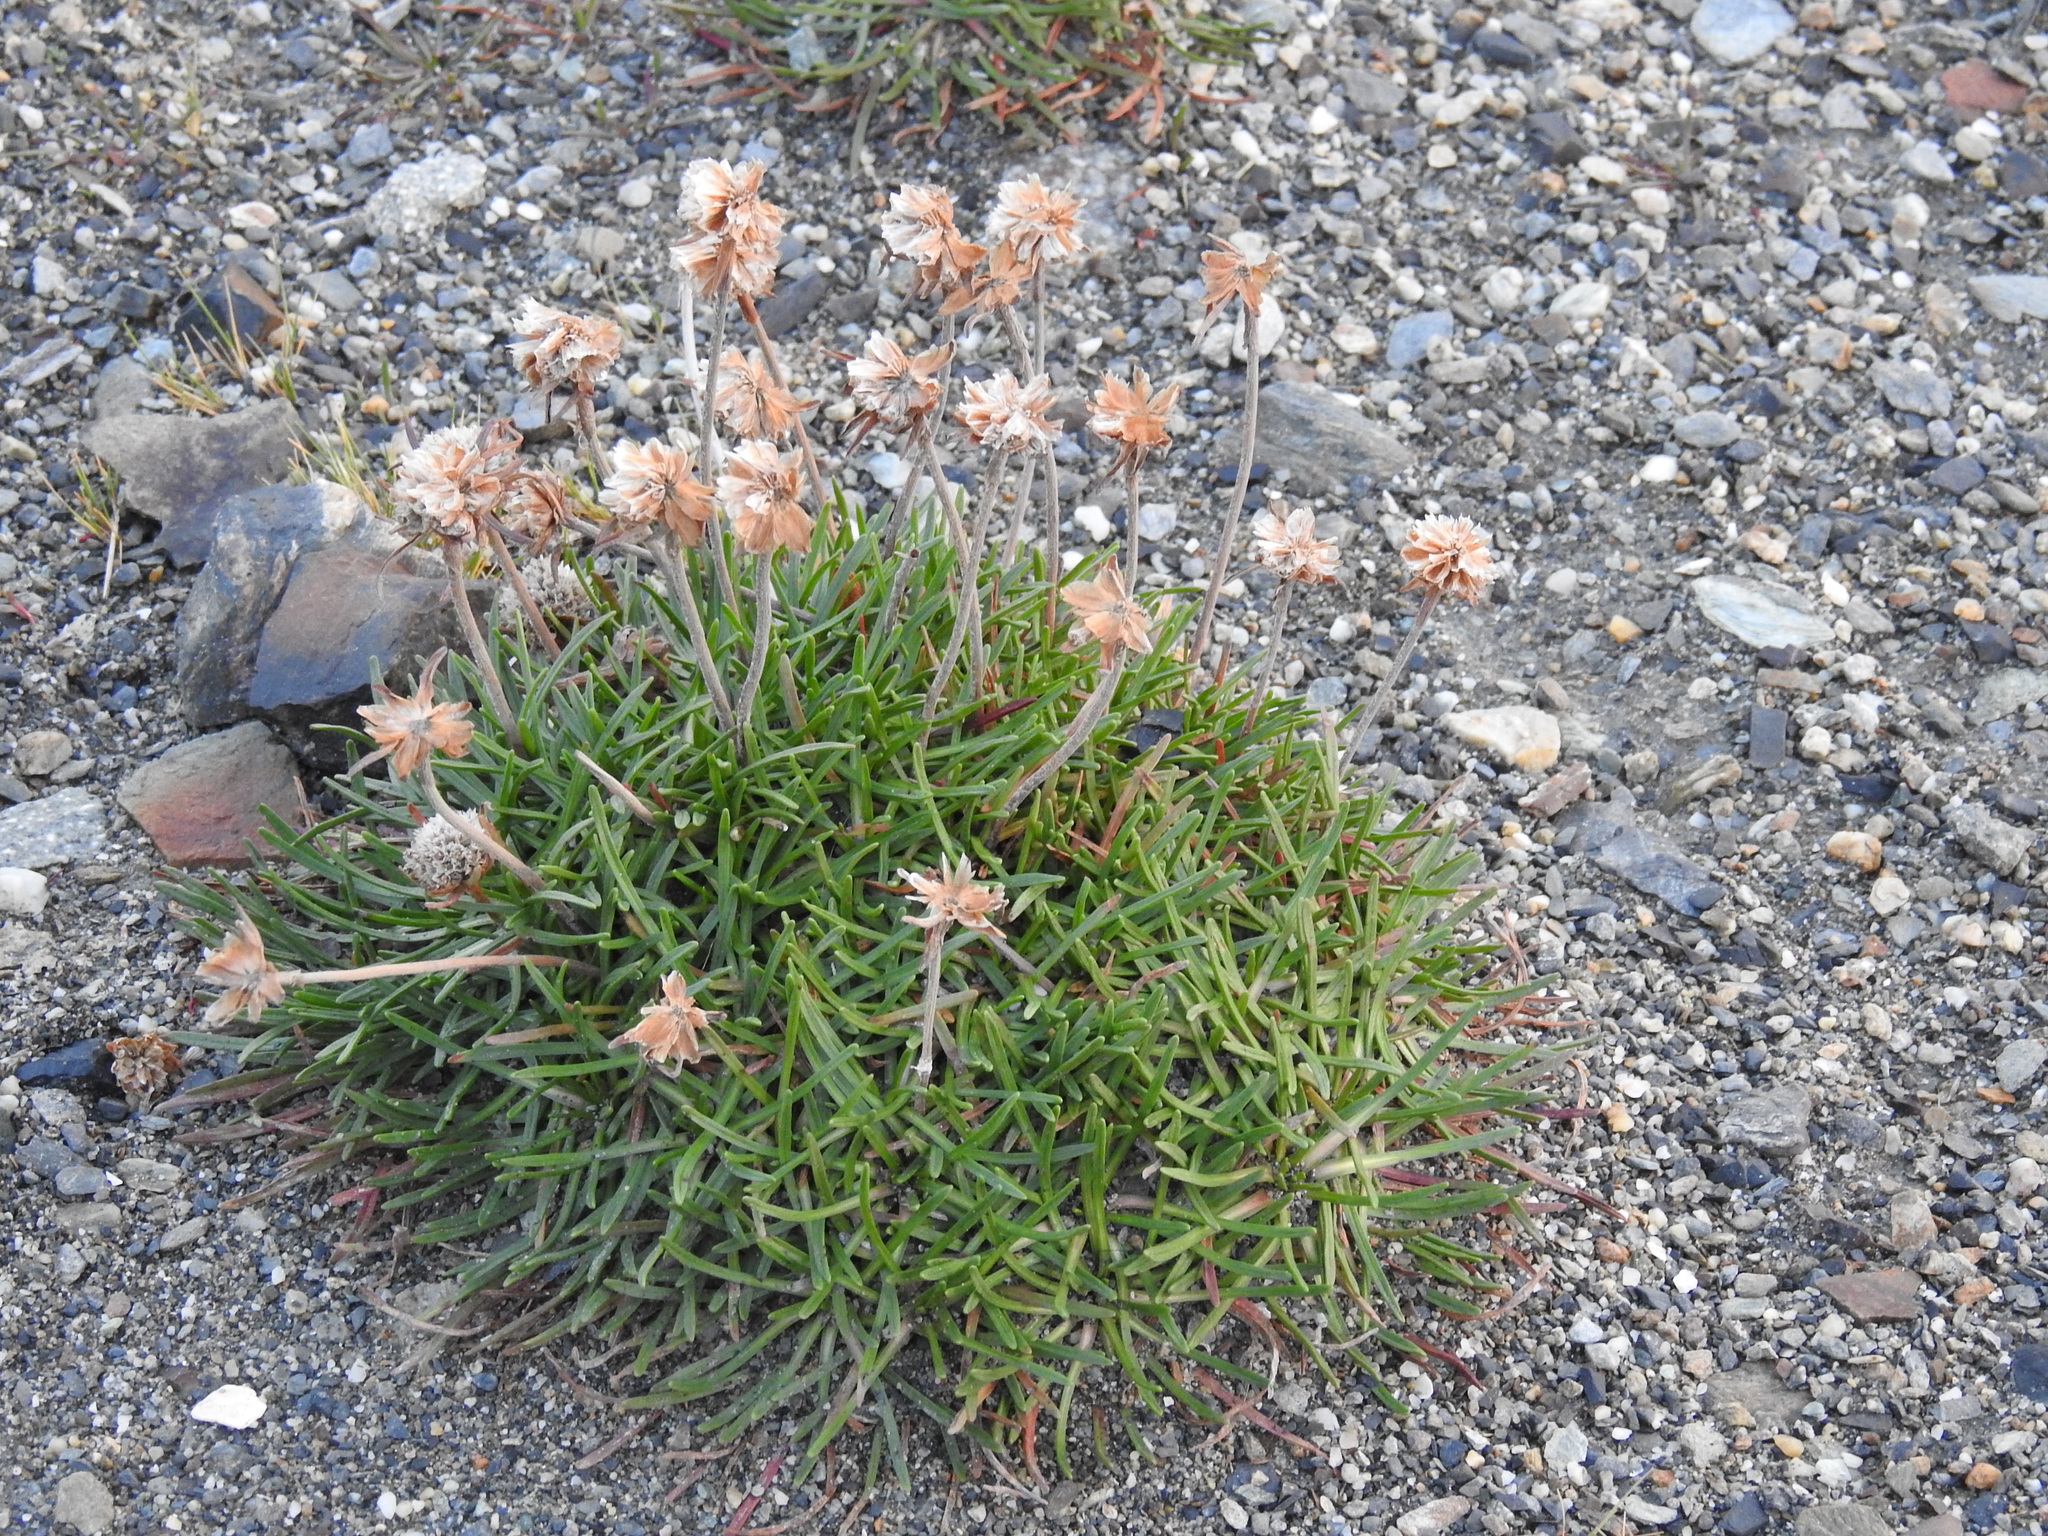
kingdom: Plantae
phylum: Tracheophyta
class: Magnoliopsida
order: Caryophyllales
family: Plumbaginaceae
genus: Armeria
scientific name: Armeria curvifolia
